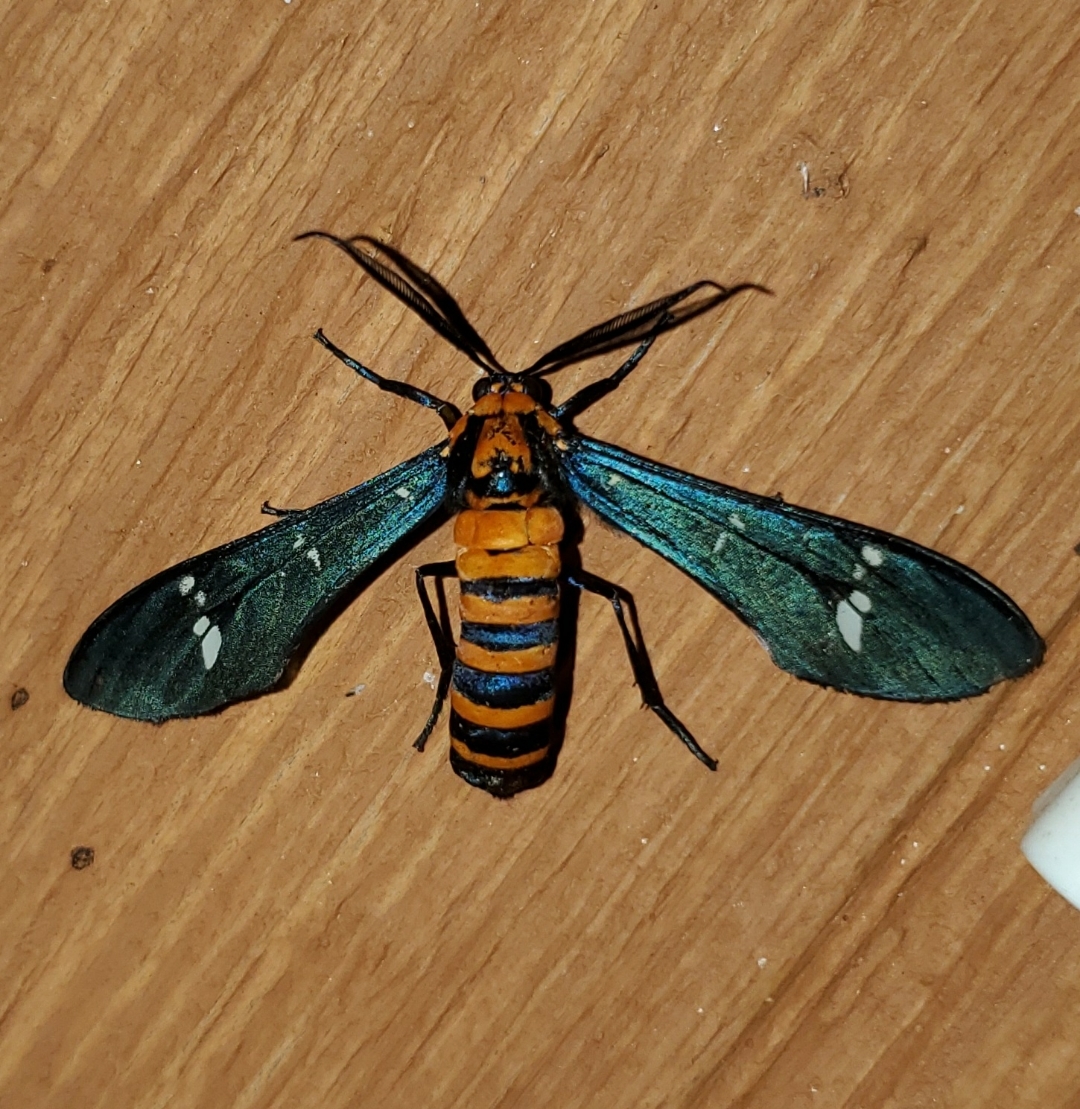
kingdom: Animalia
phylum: Arthropoda
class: Insecta
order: Lepidoptera
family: Erebidae
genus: Syntomeida
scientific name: Syntomeida ipomoeae
